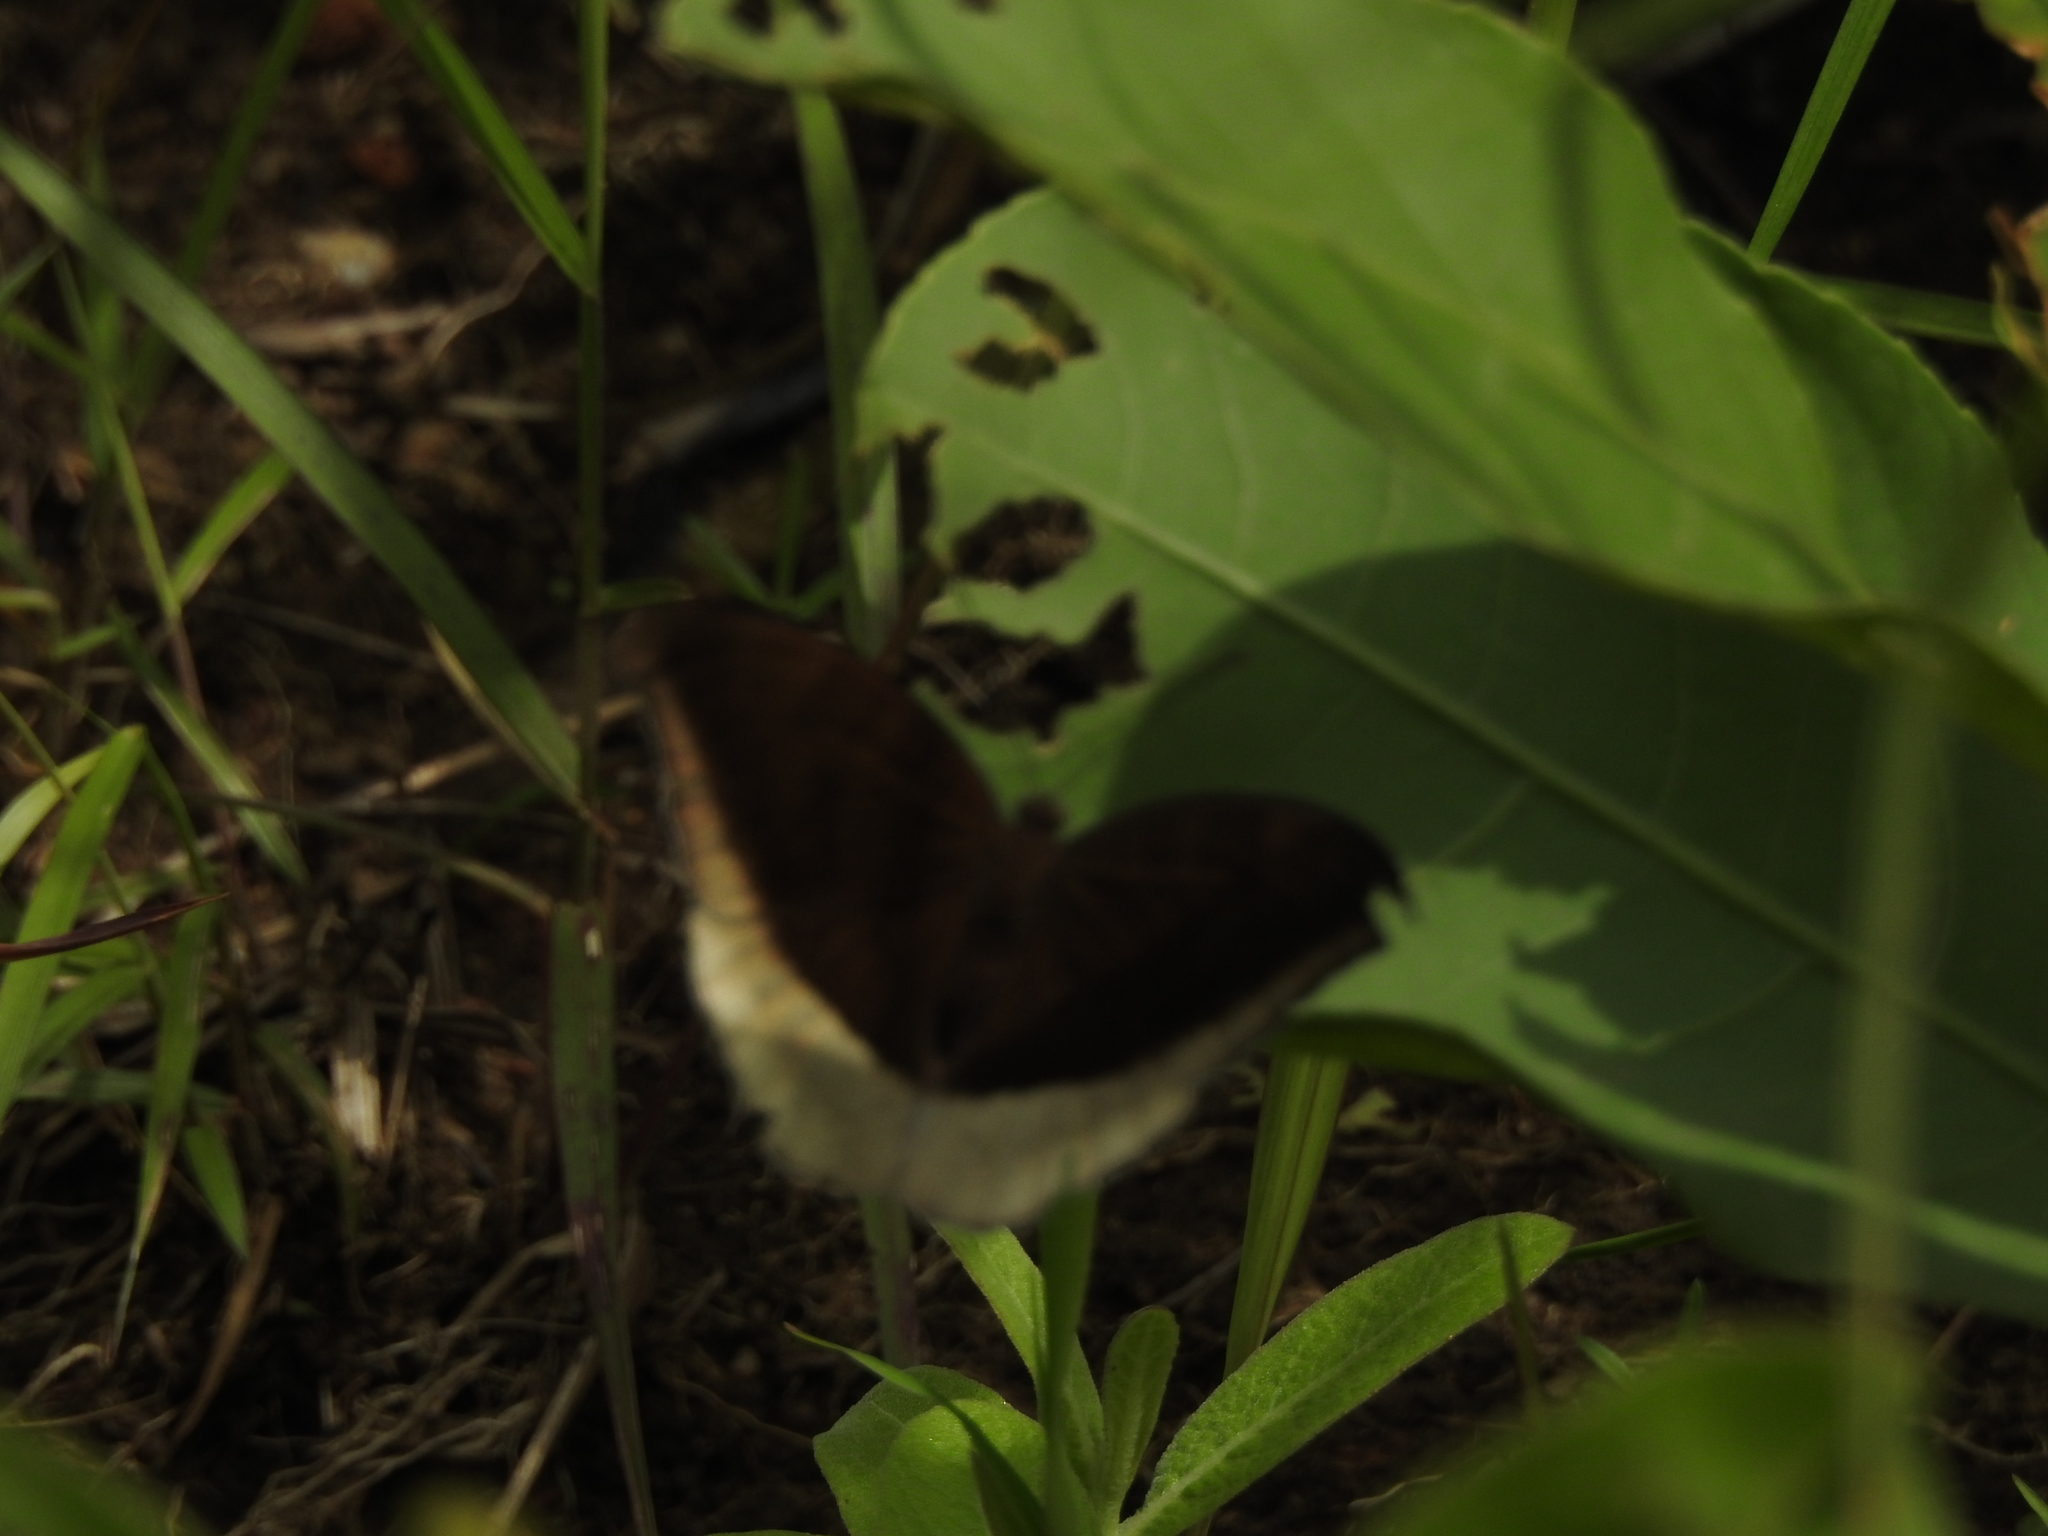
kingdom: Animalia
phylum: Arthropoda
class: Insecta
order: Lepidoptera
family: Nymphalidae
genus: Tanaecia
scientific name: Tanaecia lepidea
